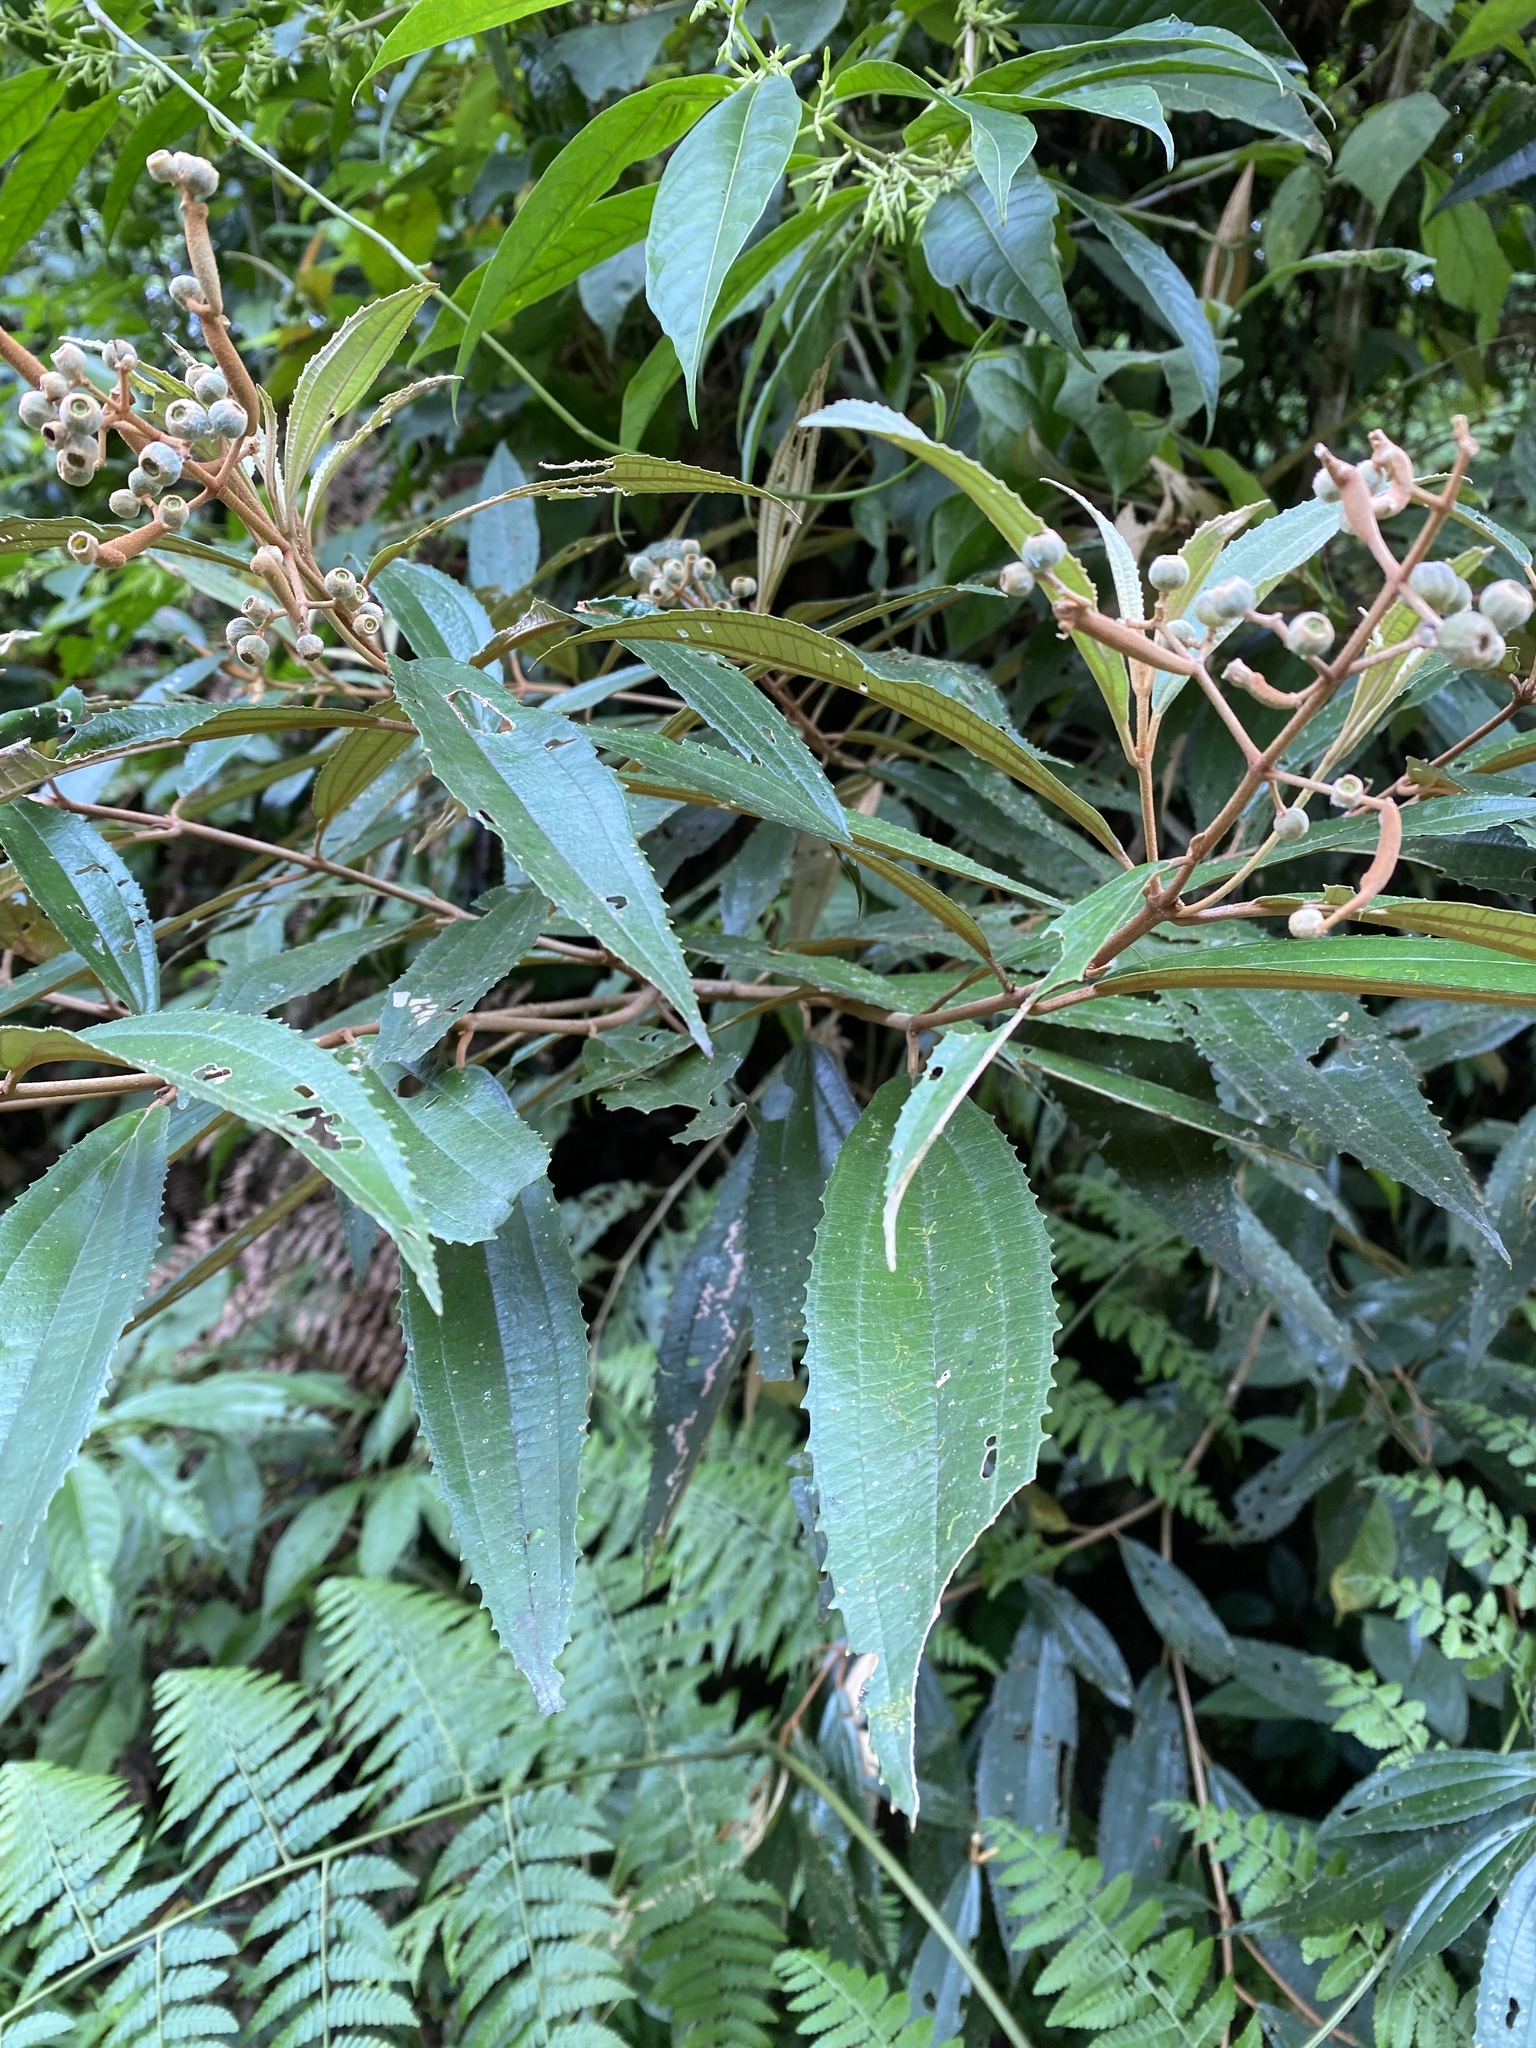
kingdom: Plantae
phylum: Tracheophyta
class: Magnoliopsida
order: Myrtales
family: Melastomataceae
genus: Miconia
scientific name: Miconia xalapensis
